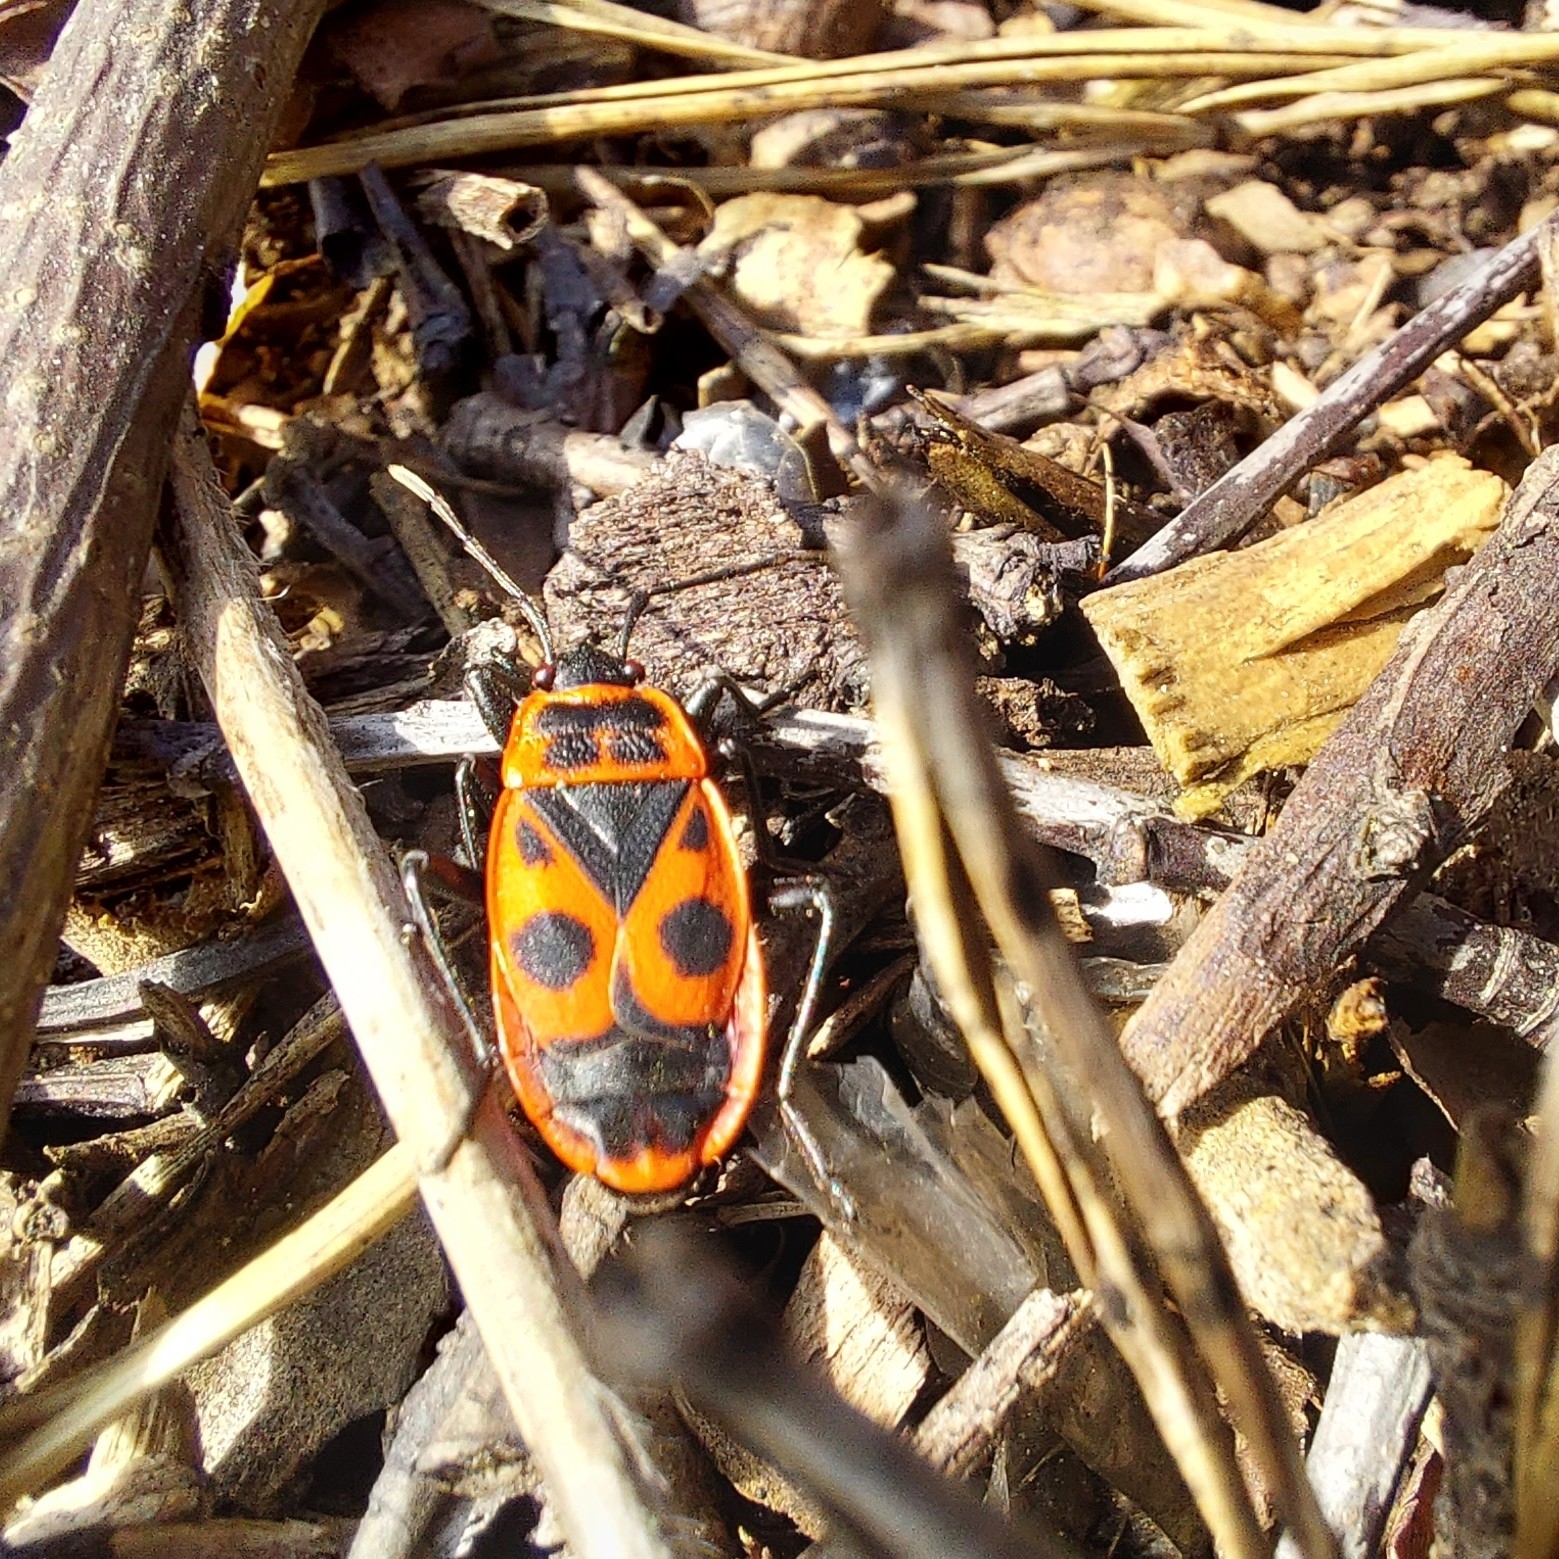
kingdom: Animalia
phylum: Arthropoda
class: Insecta
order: Hemiptera
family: Pyrrhocoridae
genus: Pyrrhocoris
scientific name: Pyrrhocoris apterus
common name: Firebug
